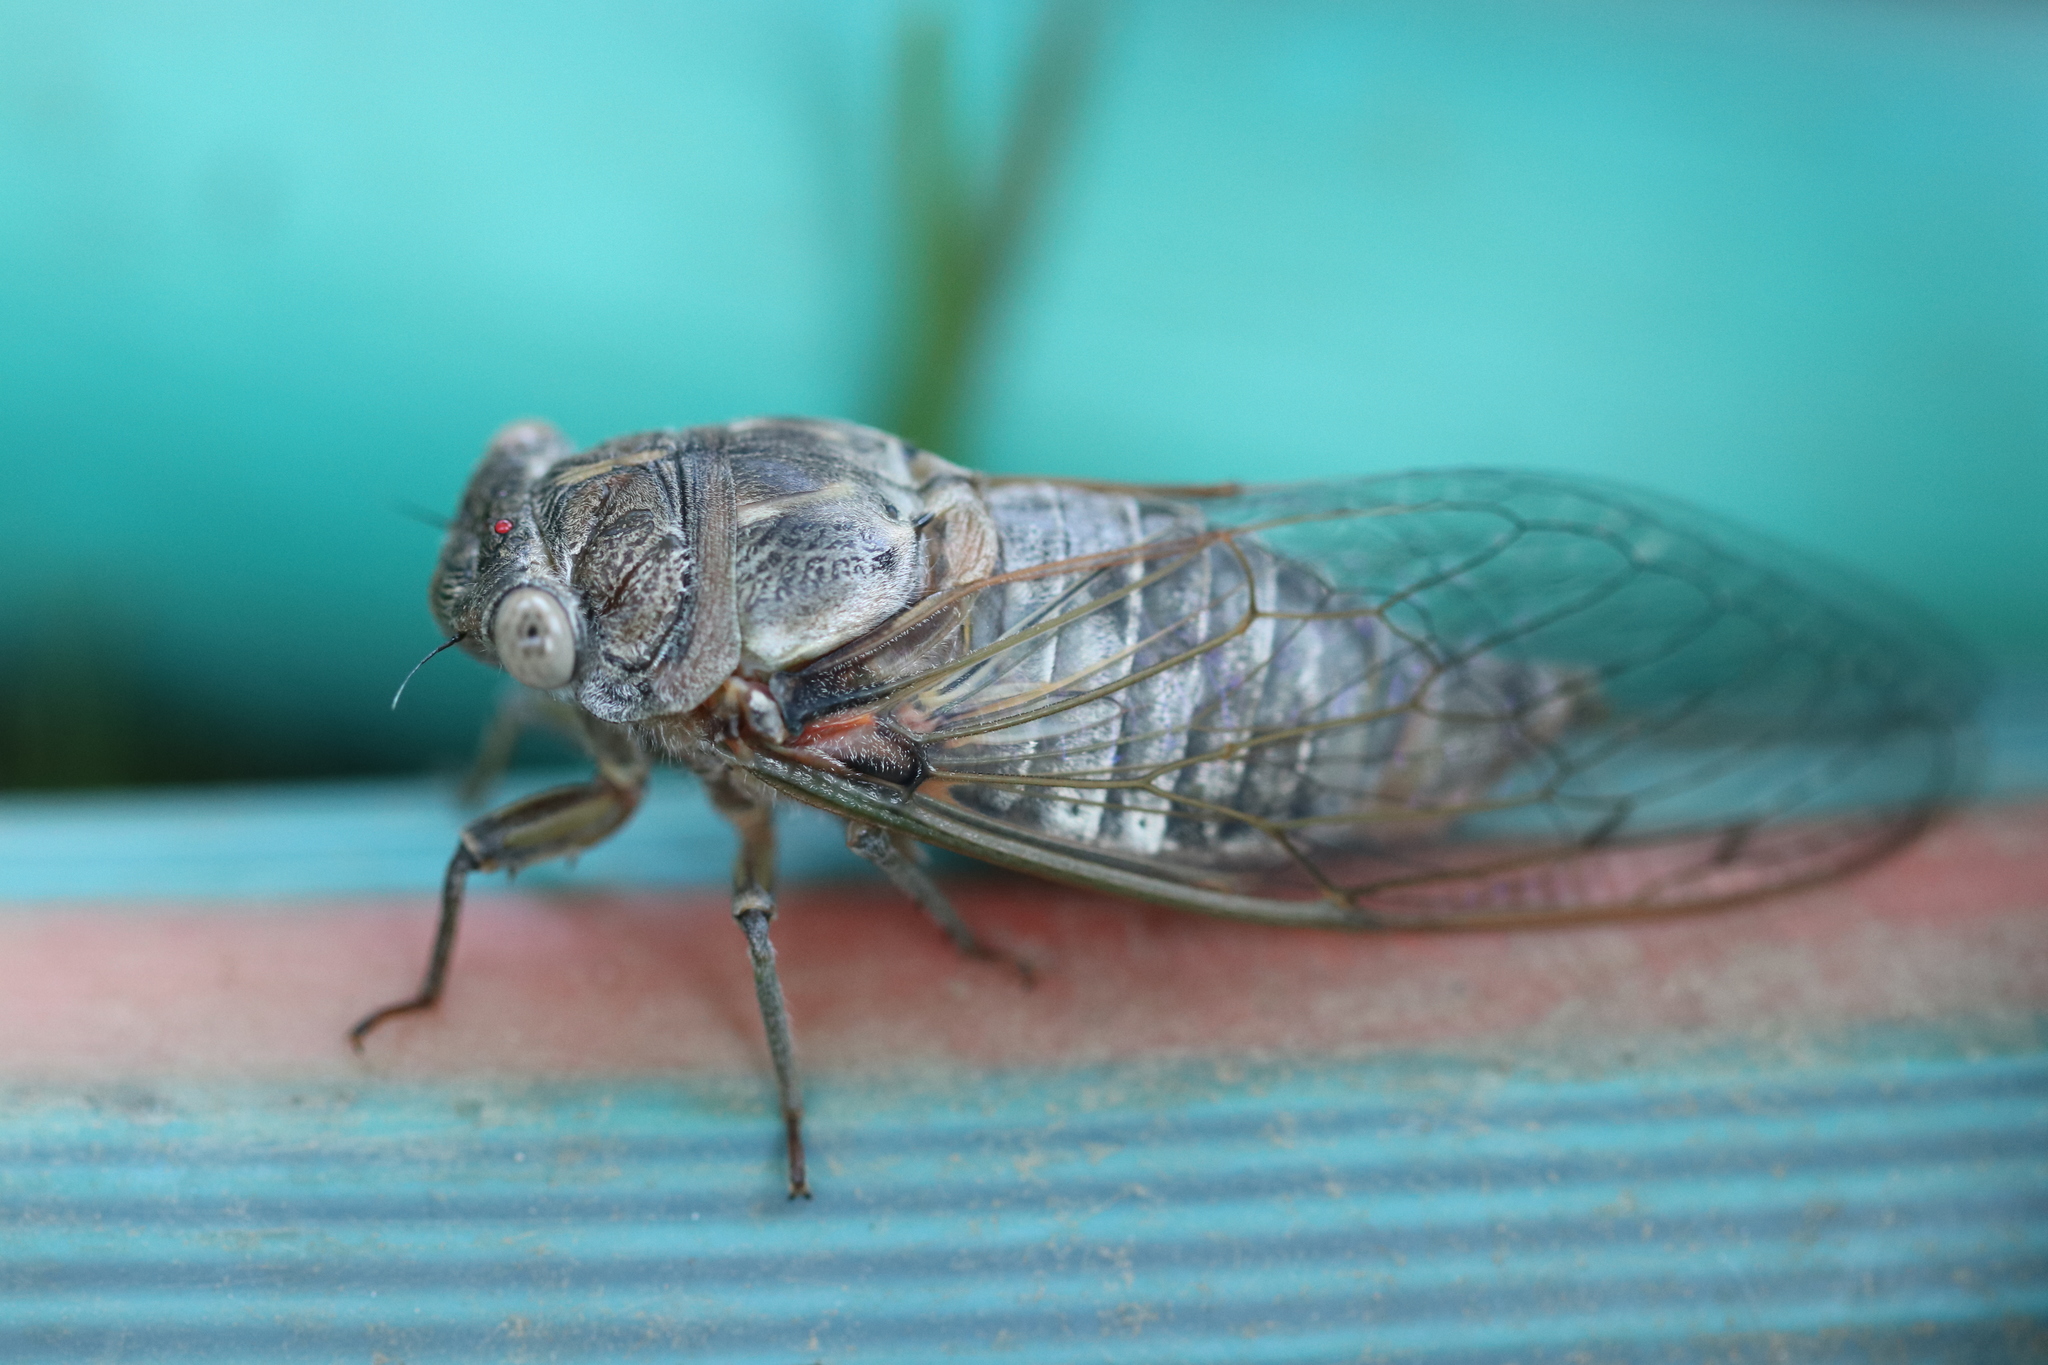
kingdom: Animalia
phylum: Arthropoda
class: Insecta
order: Hemiptera
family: Cicadidae
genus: Lyristes
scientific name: Lyristes plebejus
